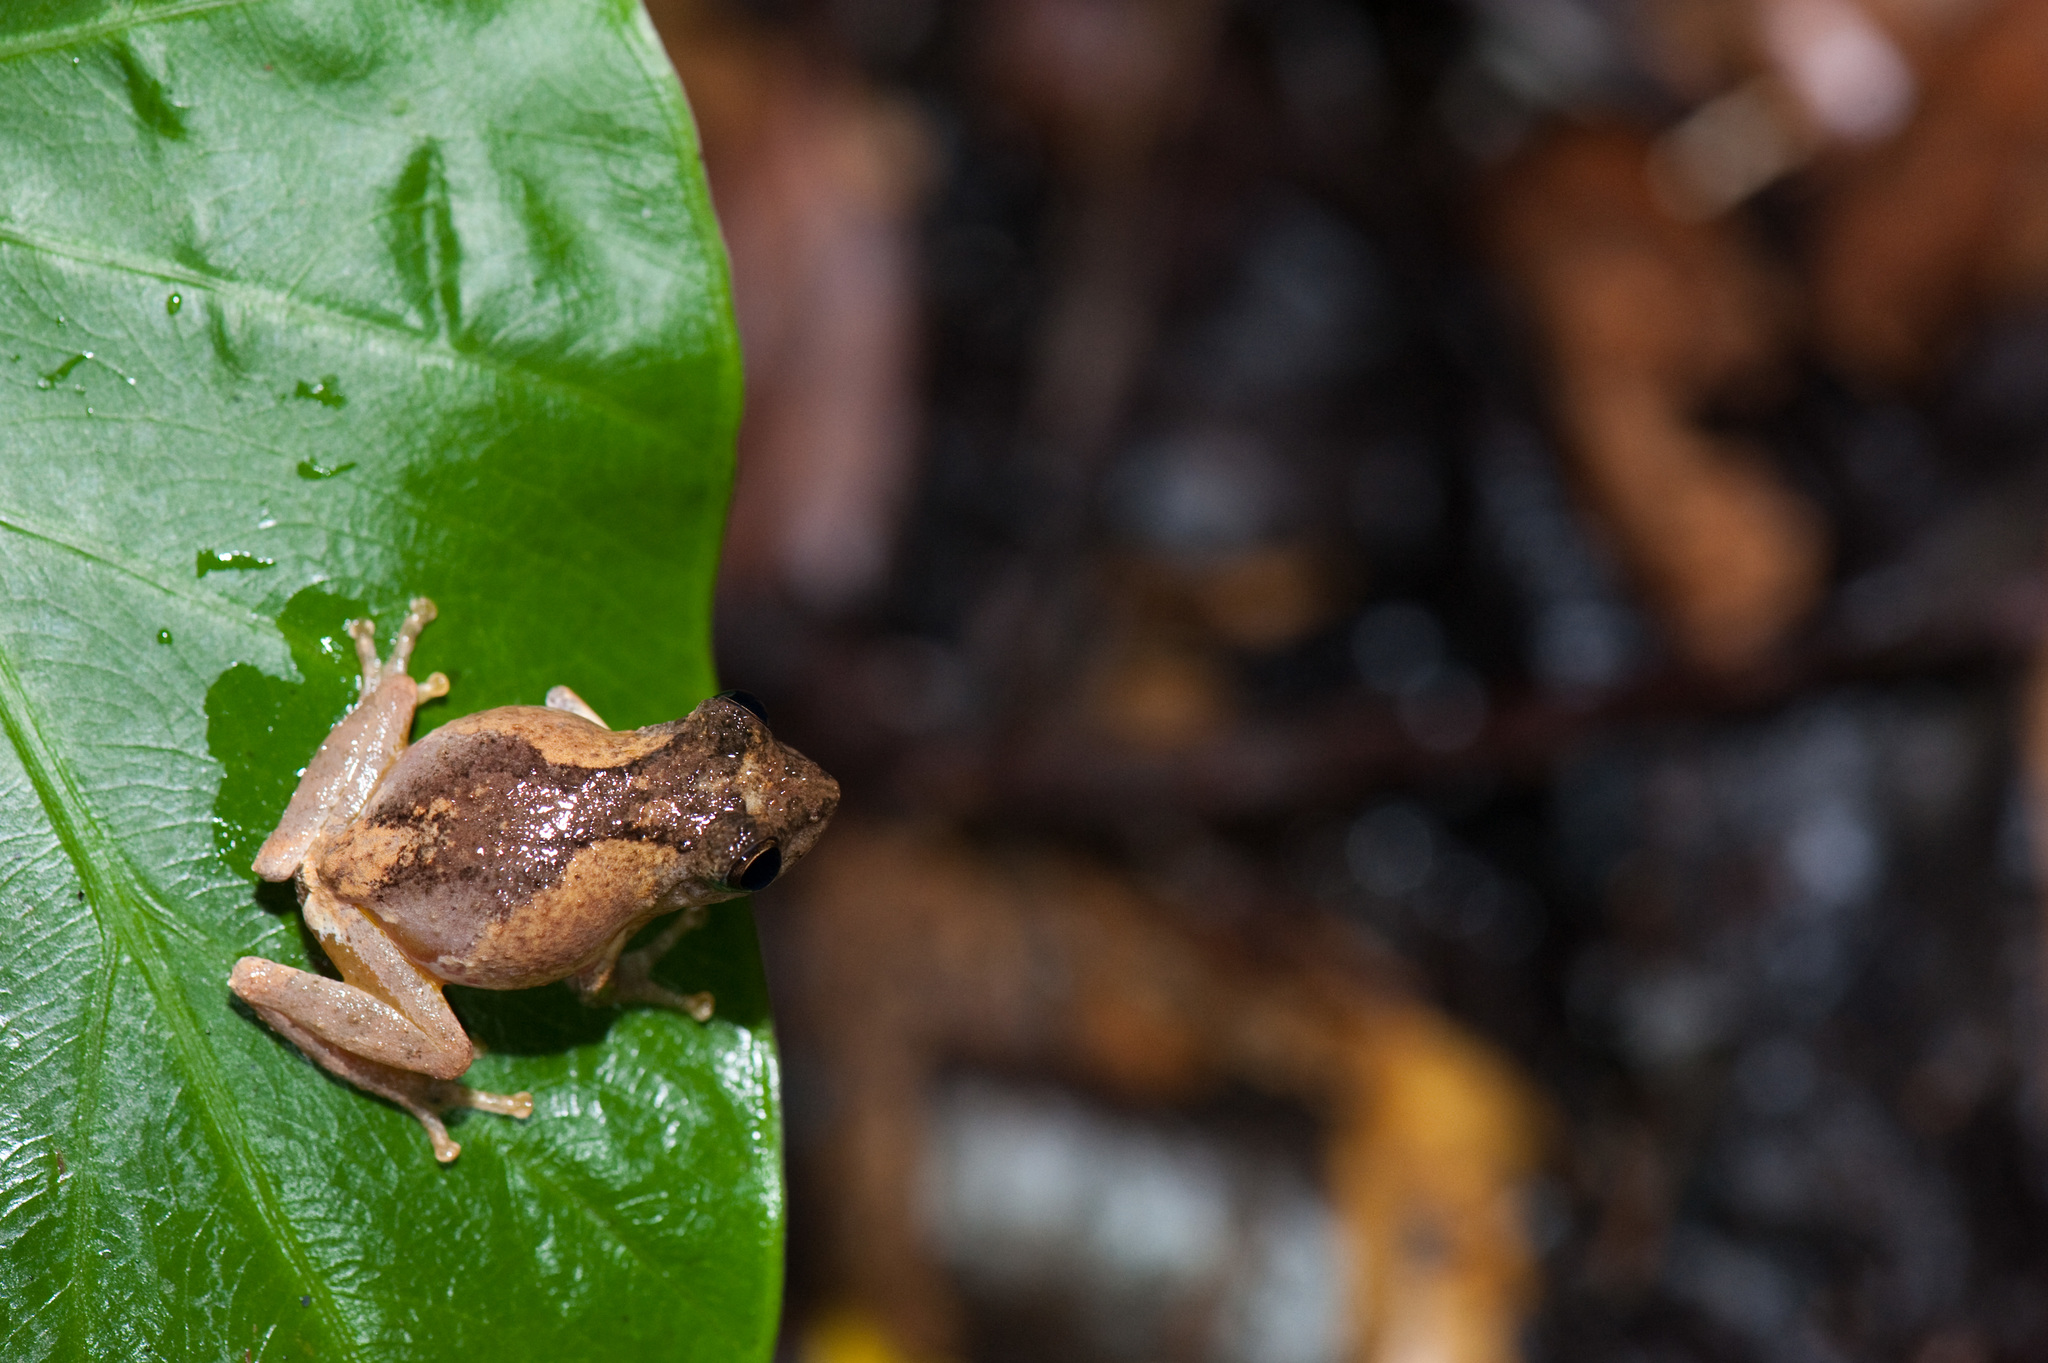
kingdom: Animalia
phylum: Chordata
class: Amphibia
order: Anura
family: Rhacophoridae
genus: Kurixalus
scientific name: Kurixalus idiootocus
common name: Temple treefrog
